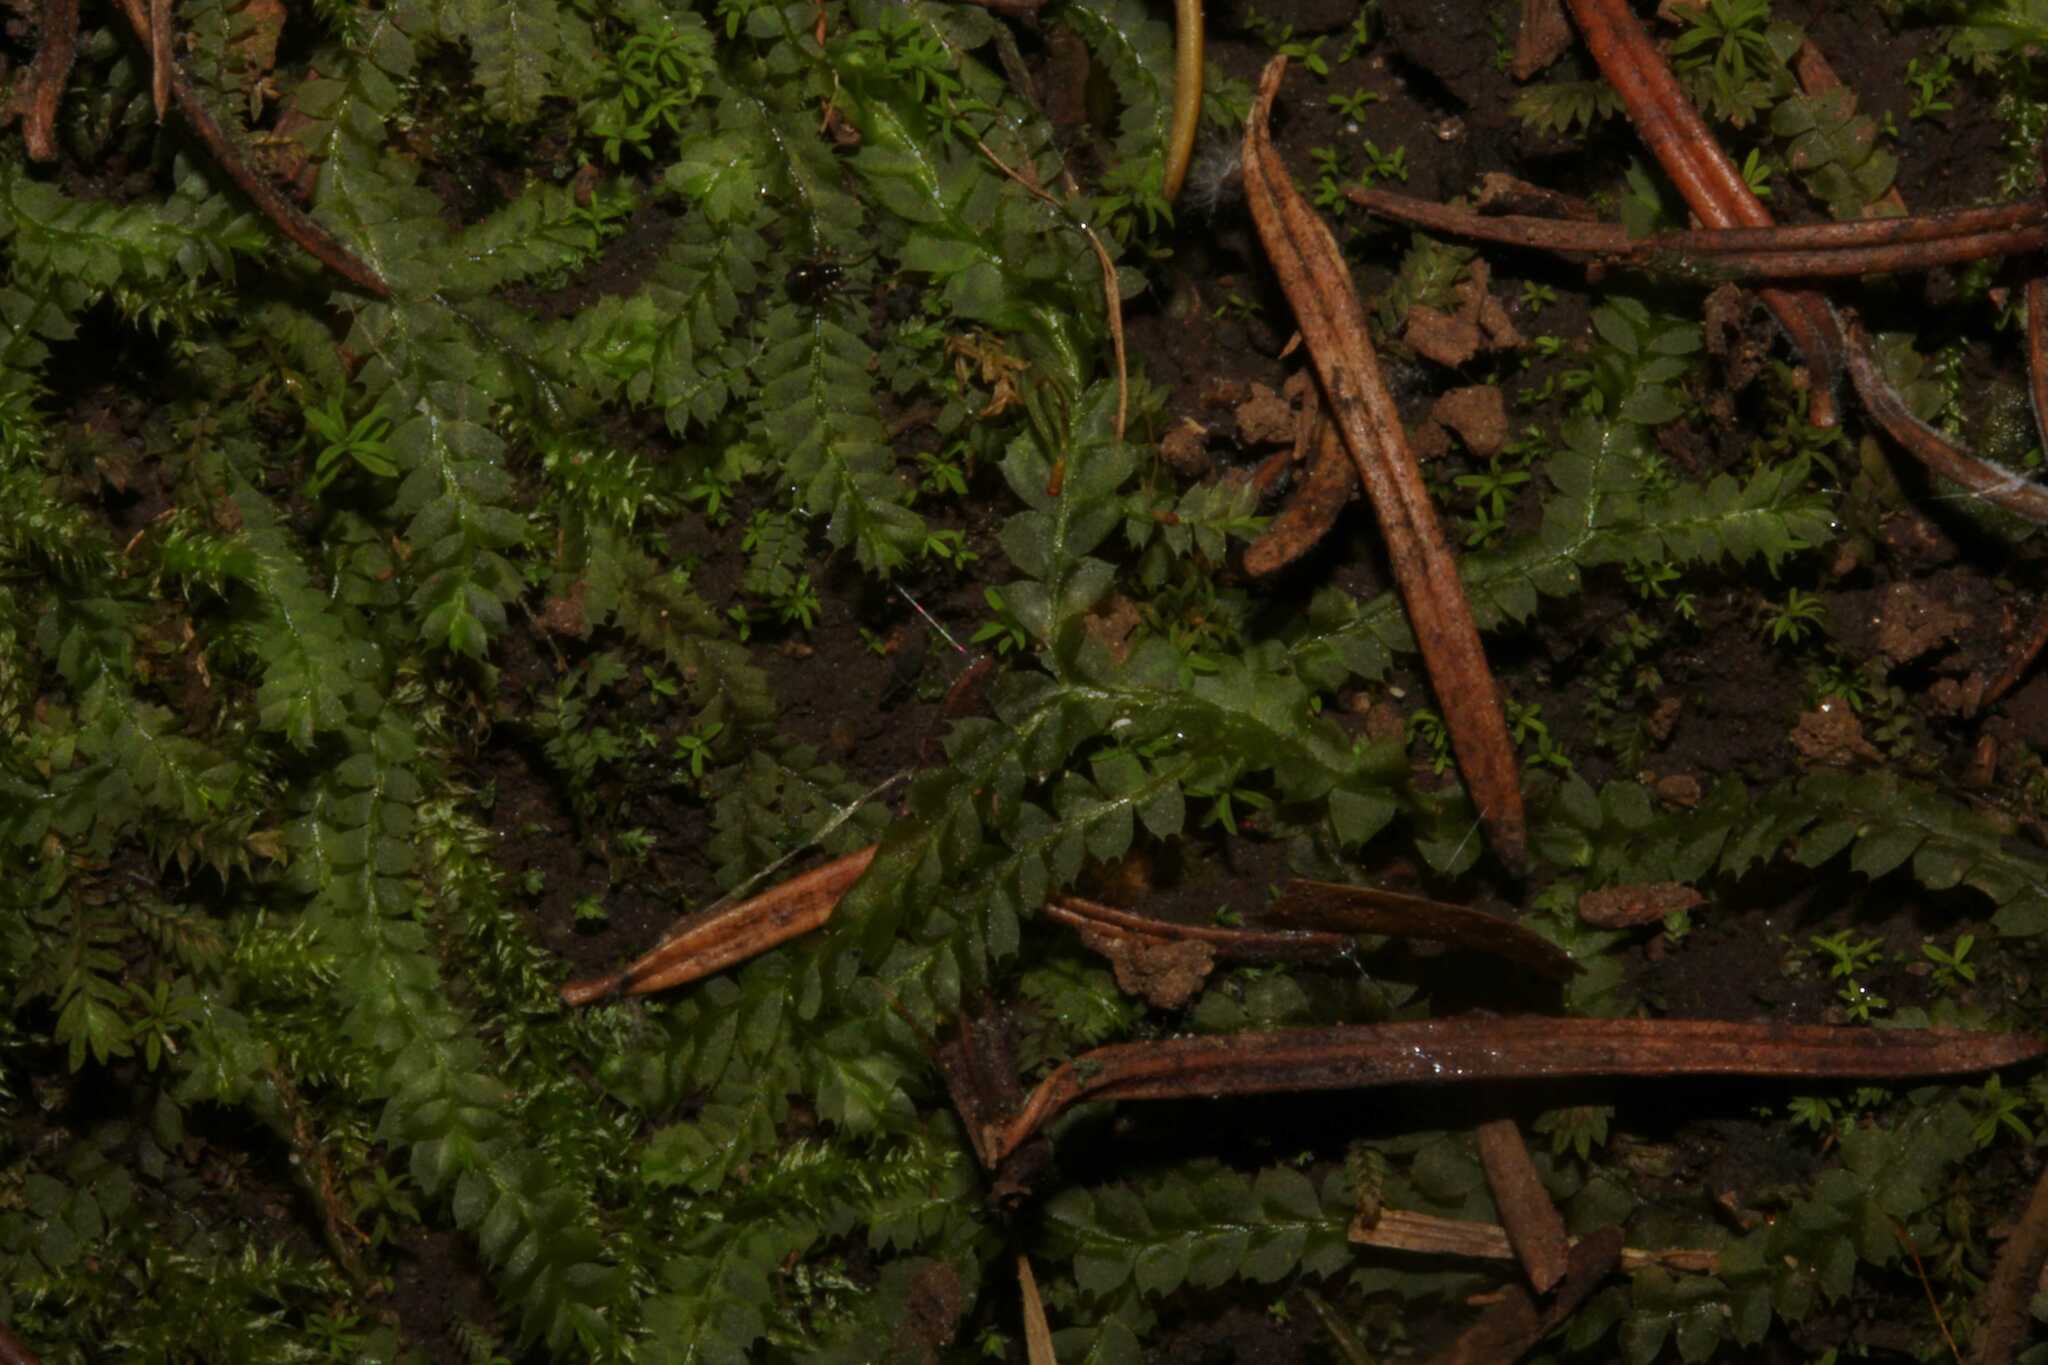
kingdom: Plantae
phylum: Marchantiophyta
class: Jungermanniopsida
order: Jungermanniales
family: Plagiochilaceae
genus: Plagiochila
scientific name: Plagiochila
